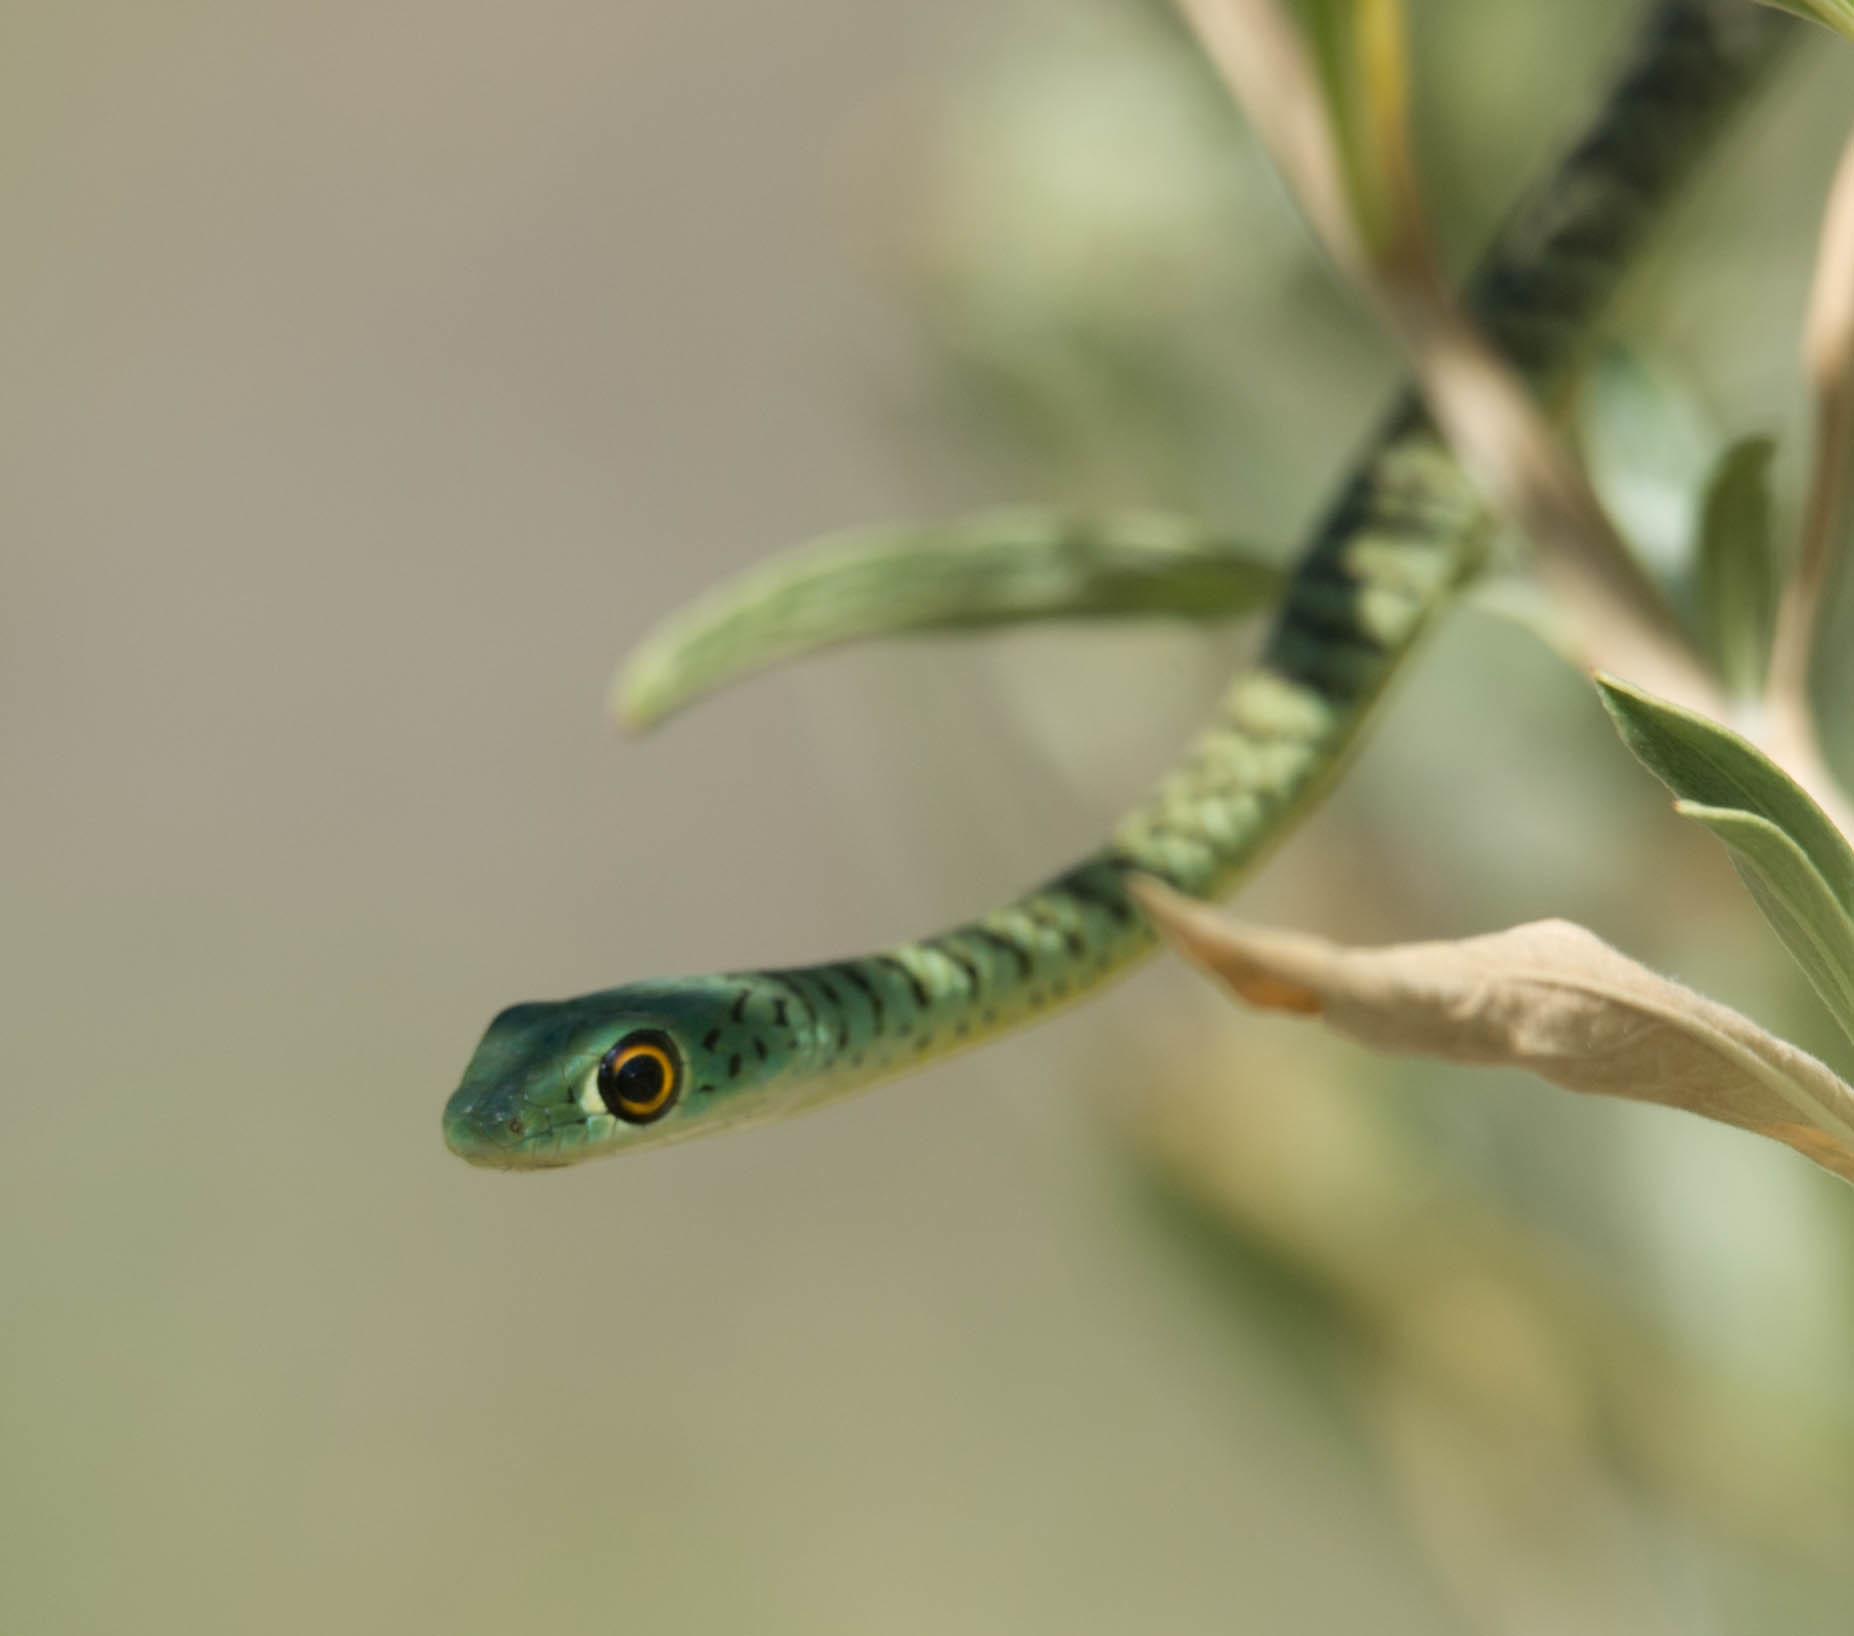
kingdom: Animalia
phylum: Chordata
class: Squamata
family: Colubridae
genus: Philothamnus
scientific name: Philothamnus semivariegatus
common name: Spotted bush snake
